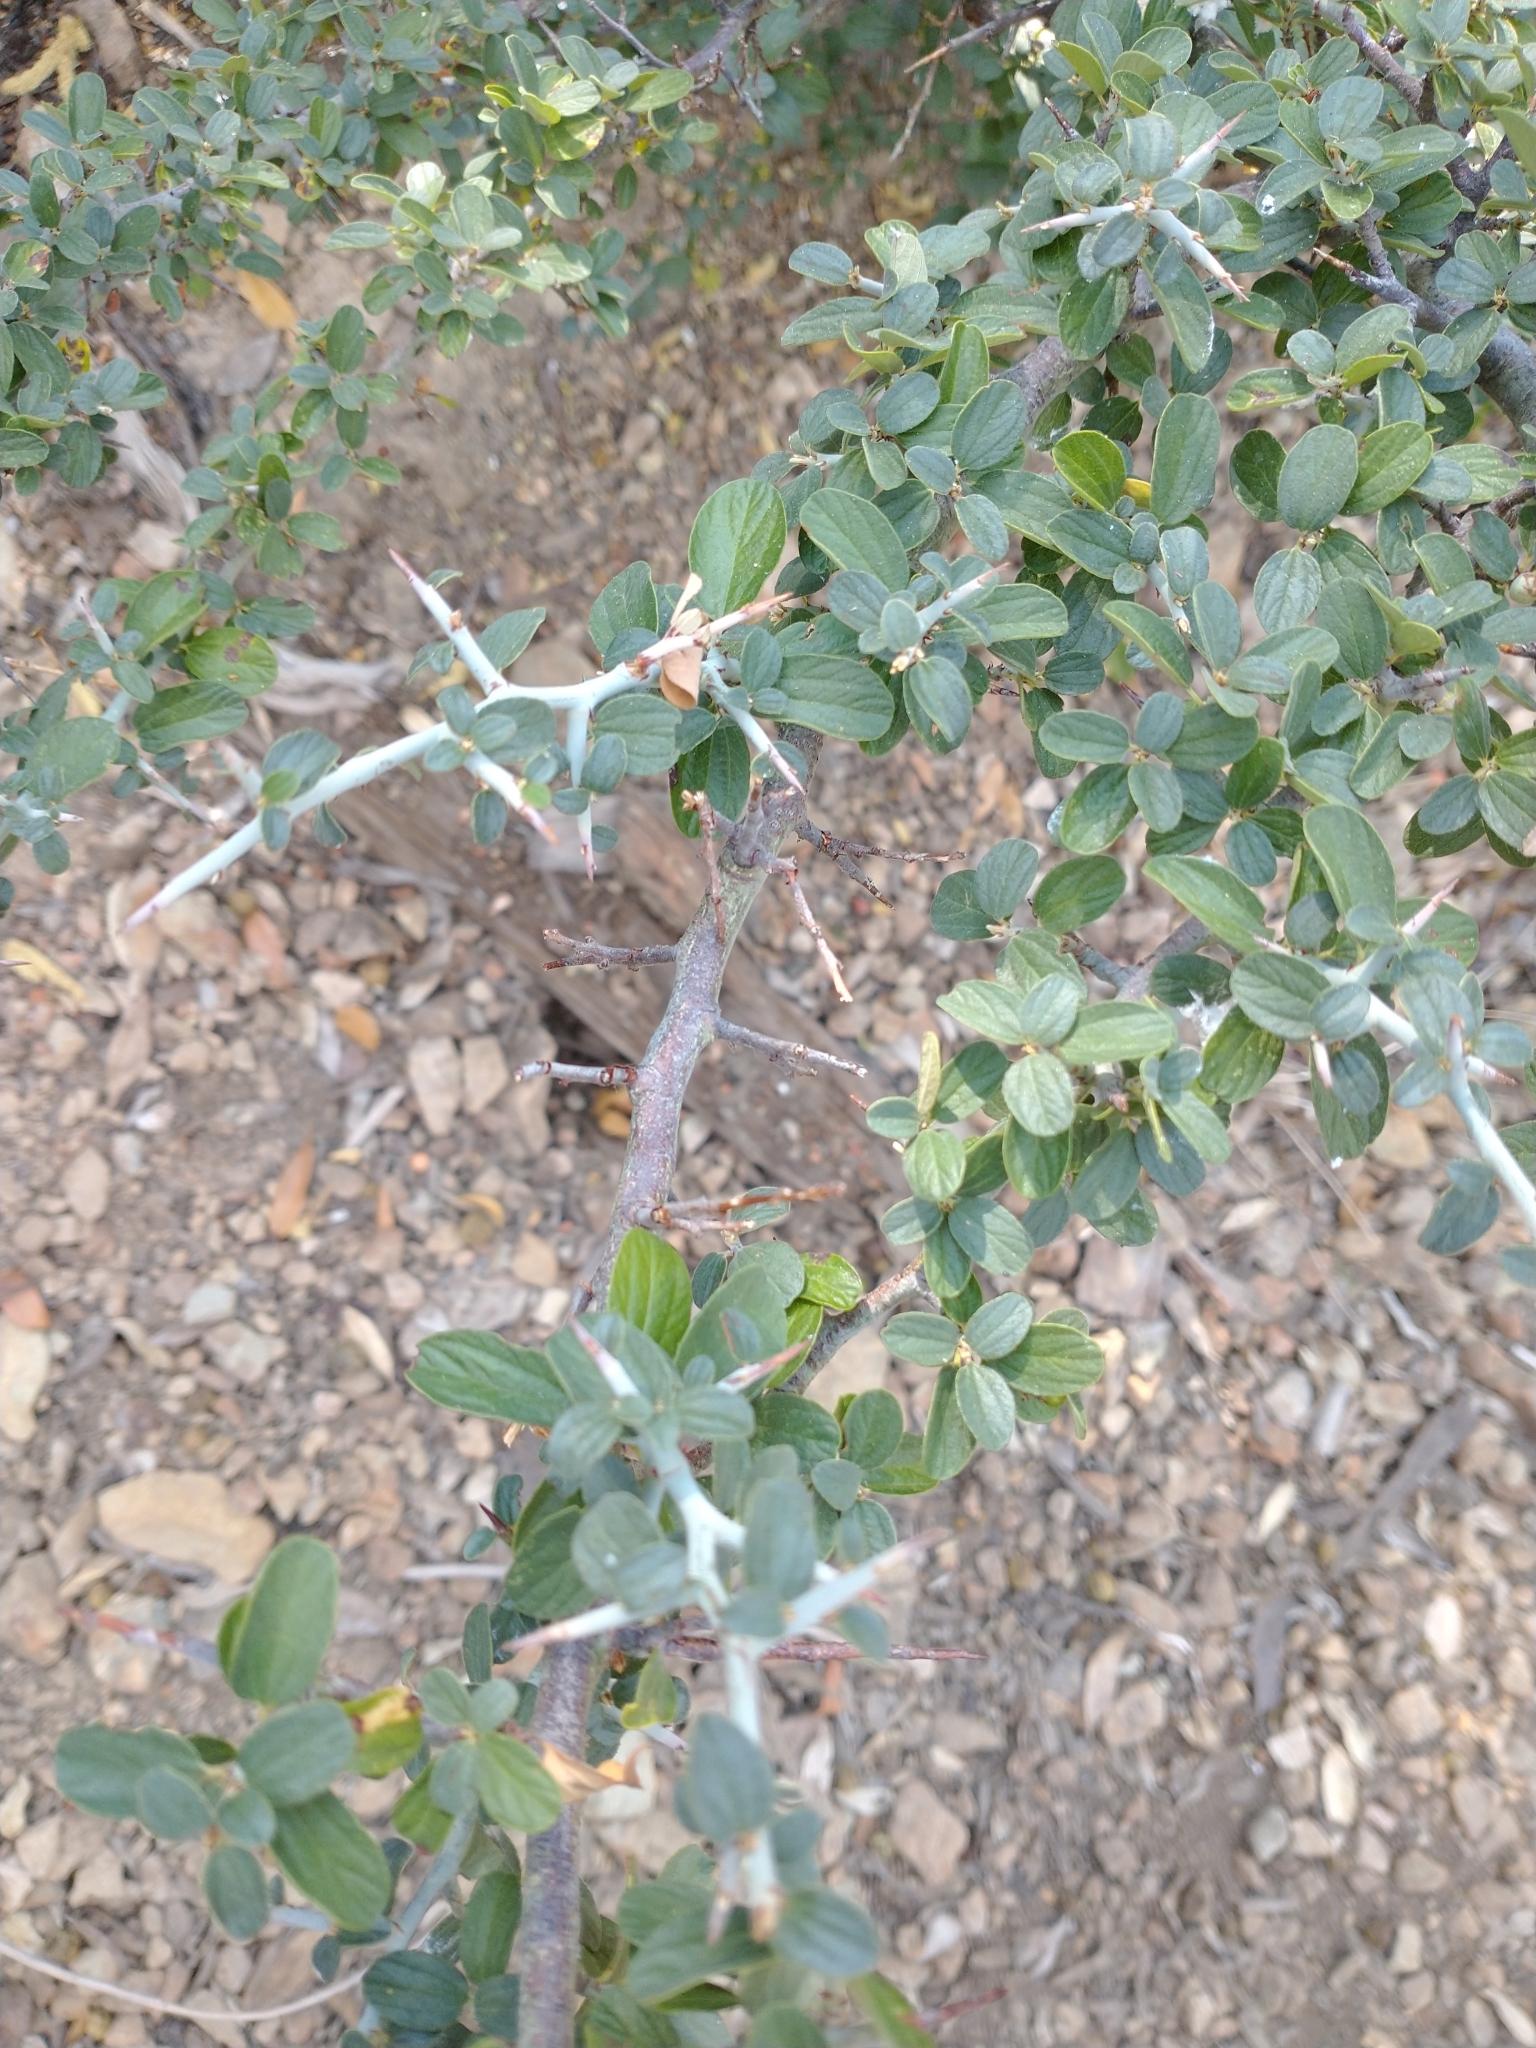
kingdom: Plantae
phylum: Tracheophyta
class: Magnoliopsida
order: Rosales
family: Rhamnaceae
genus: Ceanothus
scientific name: Ceanothus cordulatus
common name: Mountain whitethorn
